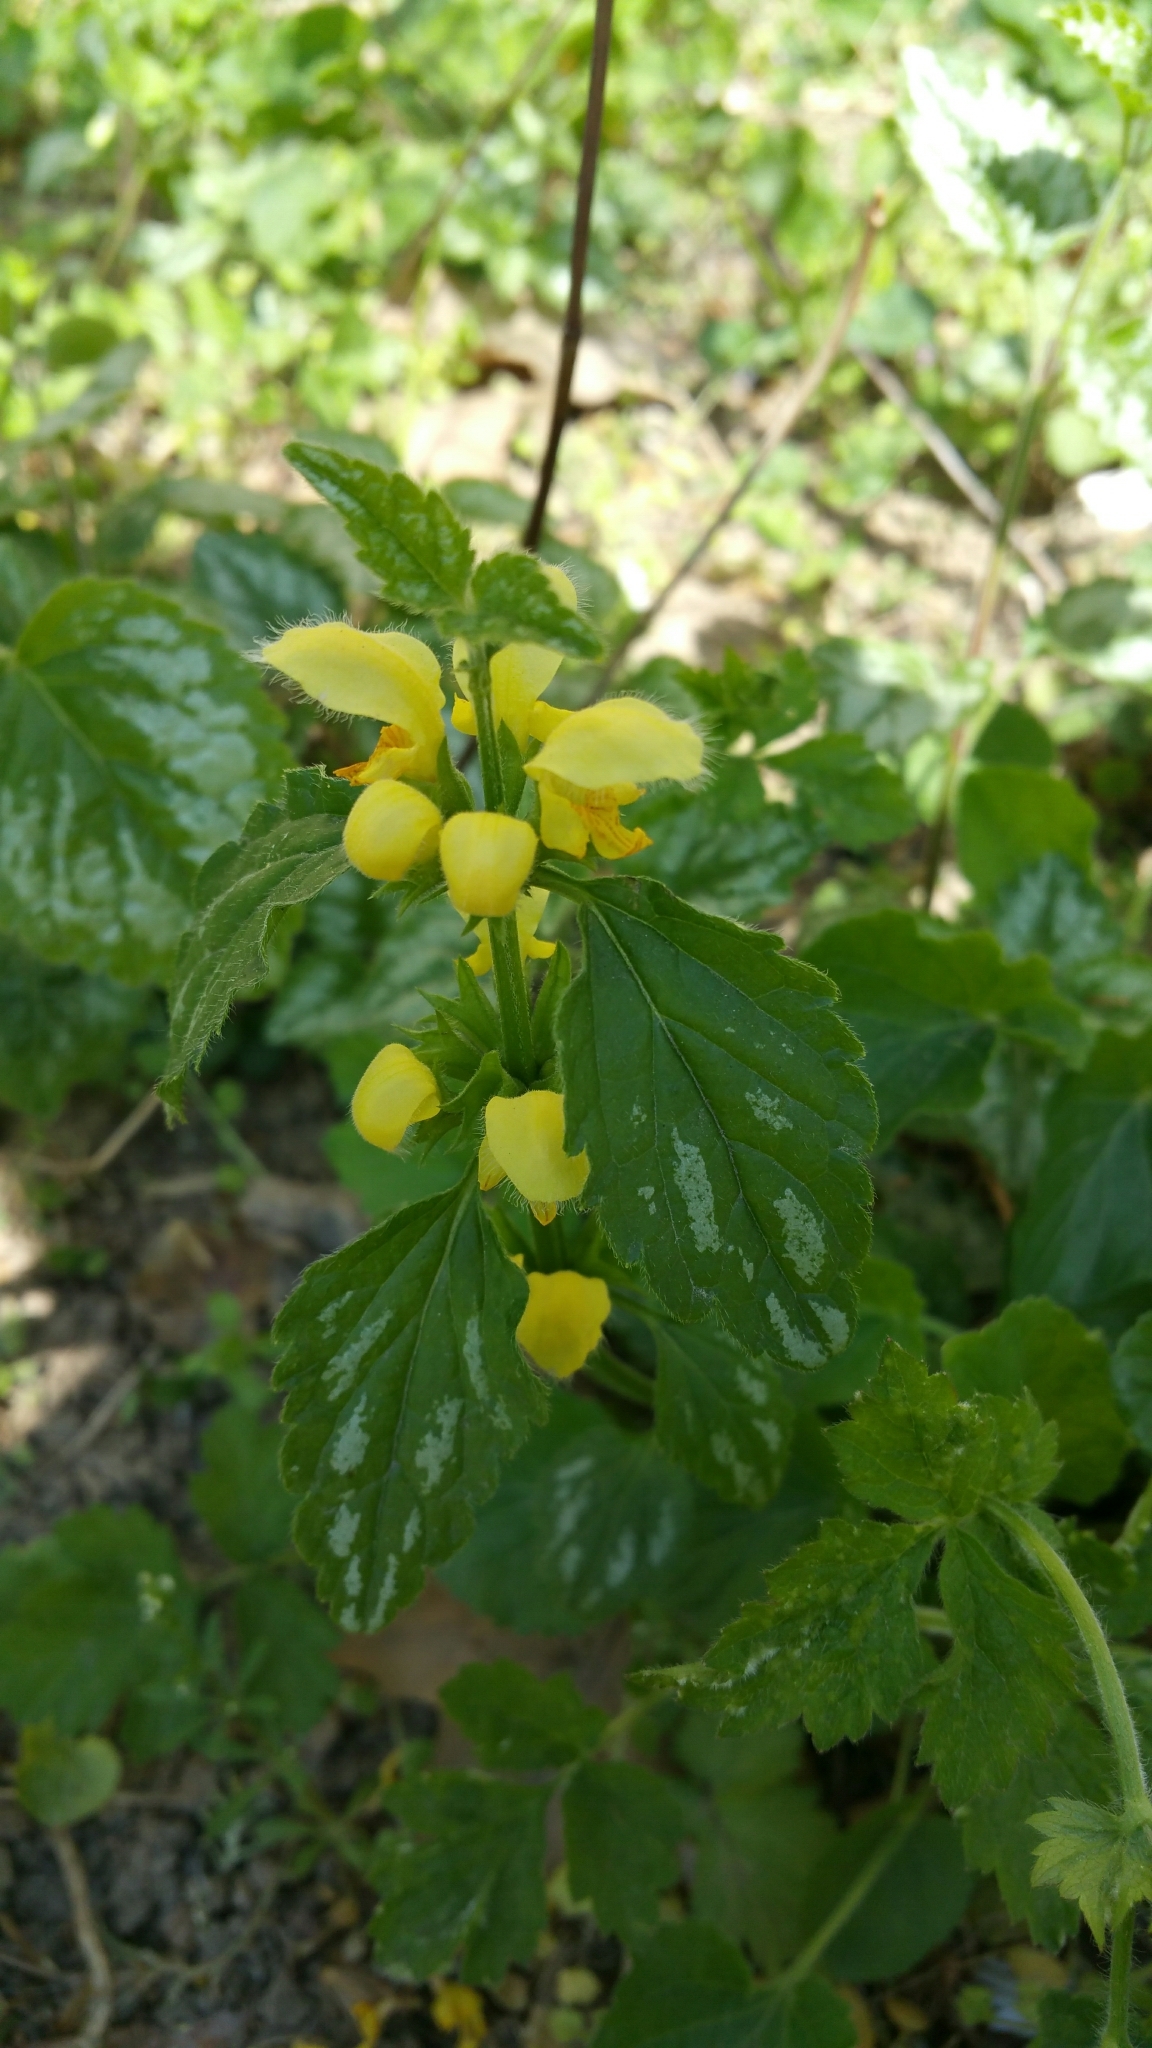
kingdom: Plantae
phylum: Tracheophyta
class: Magnoliopsida
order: Lamiales
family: Lamiaceae
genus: Lamium
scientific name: Lamium galeobdolon
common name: Yellow archangel
